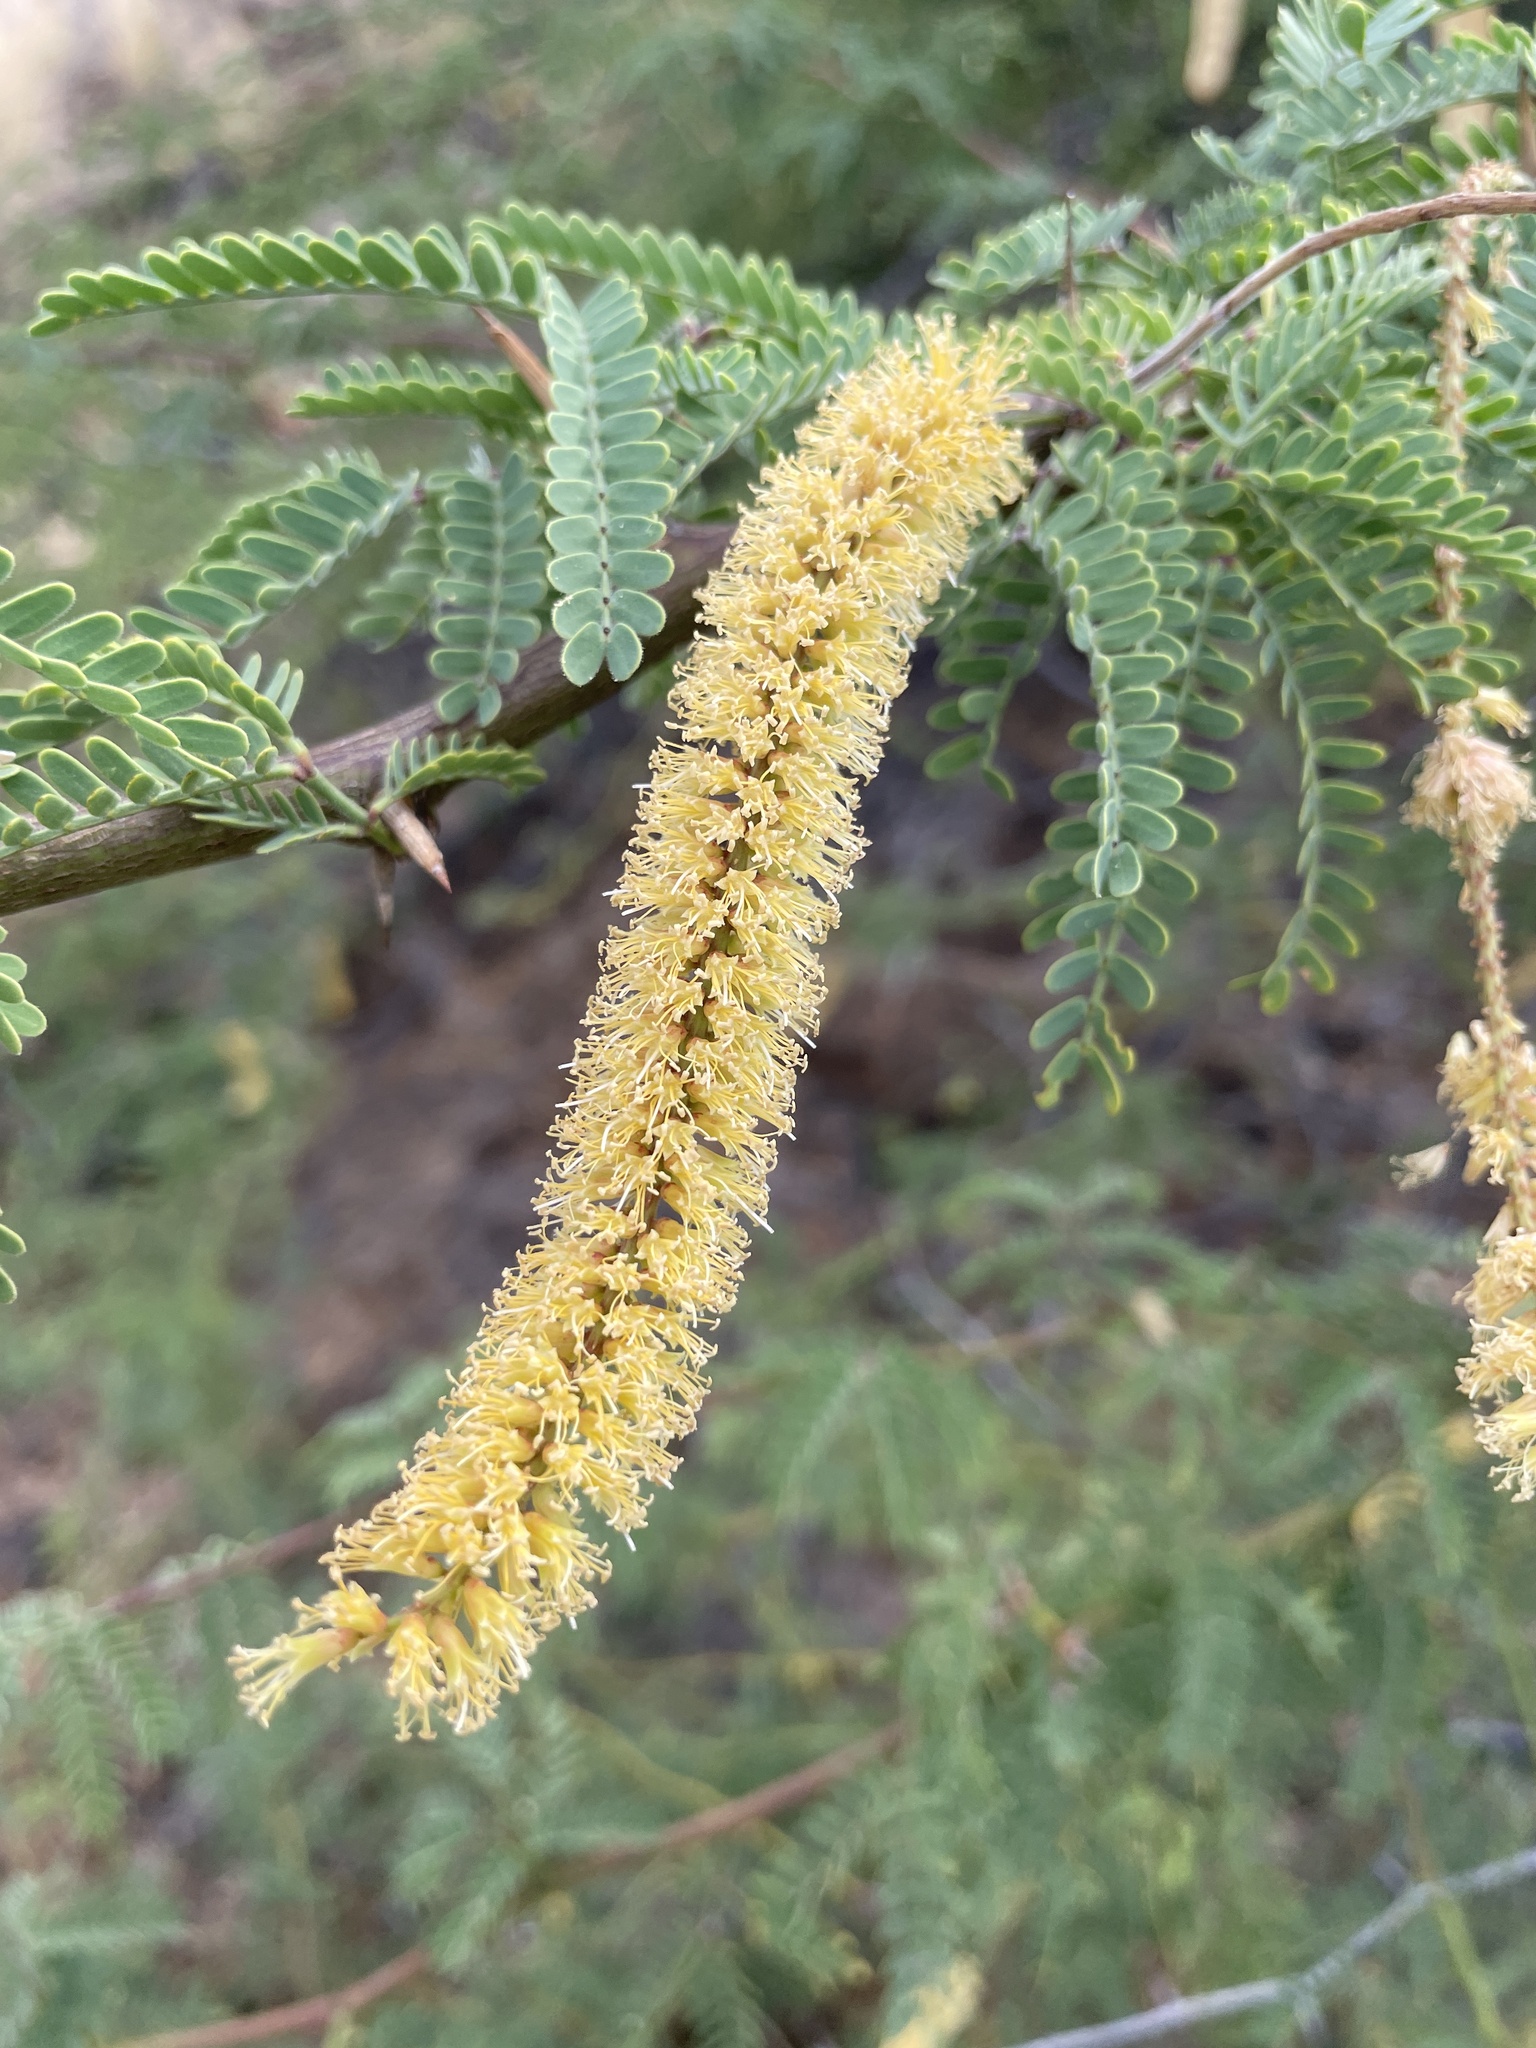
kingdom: Plantae
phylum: Tracheophyta
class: Magnoliopsida
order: Fabales
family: Fabaceae
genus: Prosopis
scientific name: Prosopis pallida
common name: Mesquite
